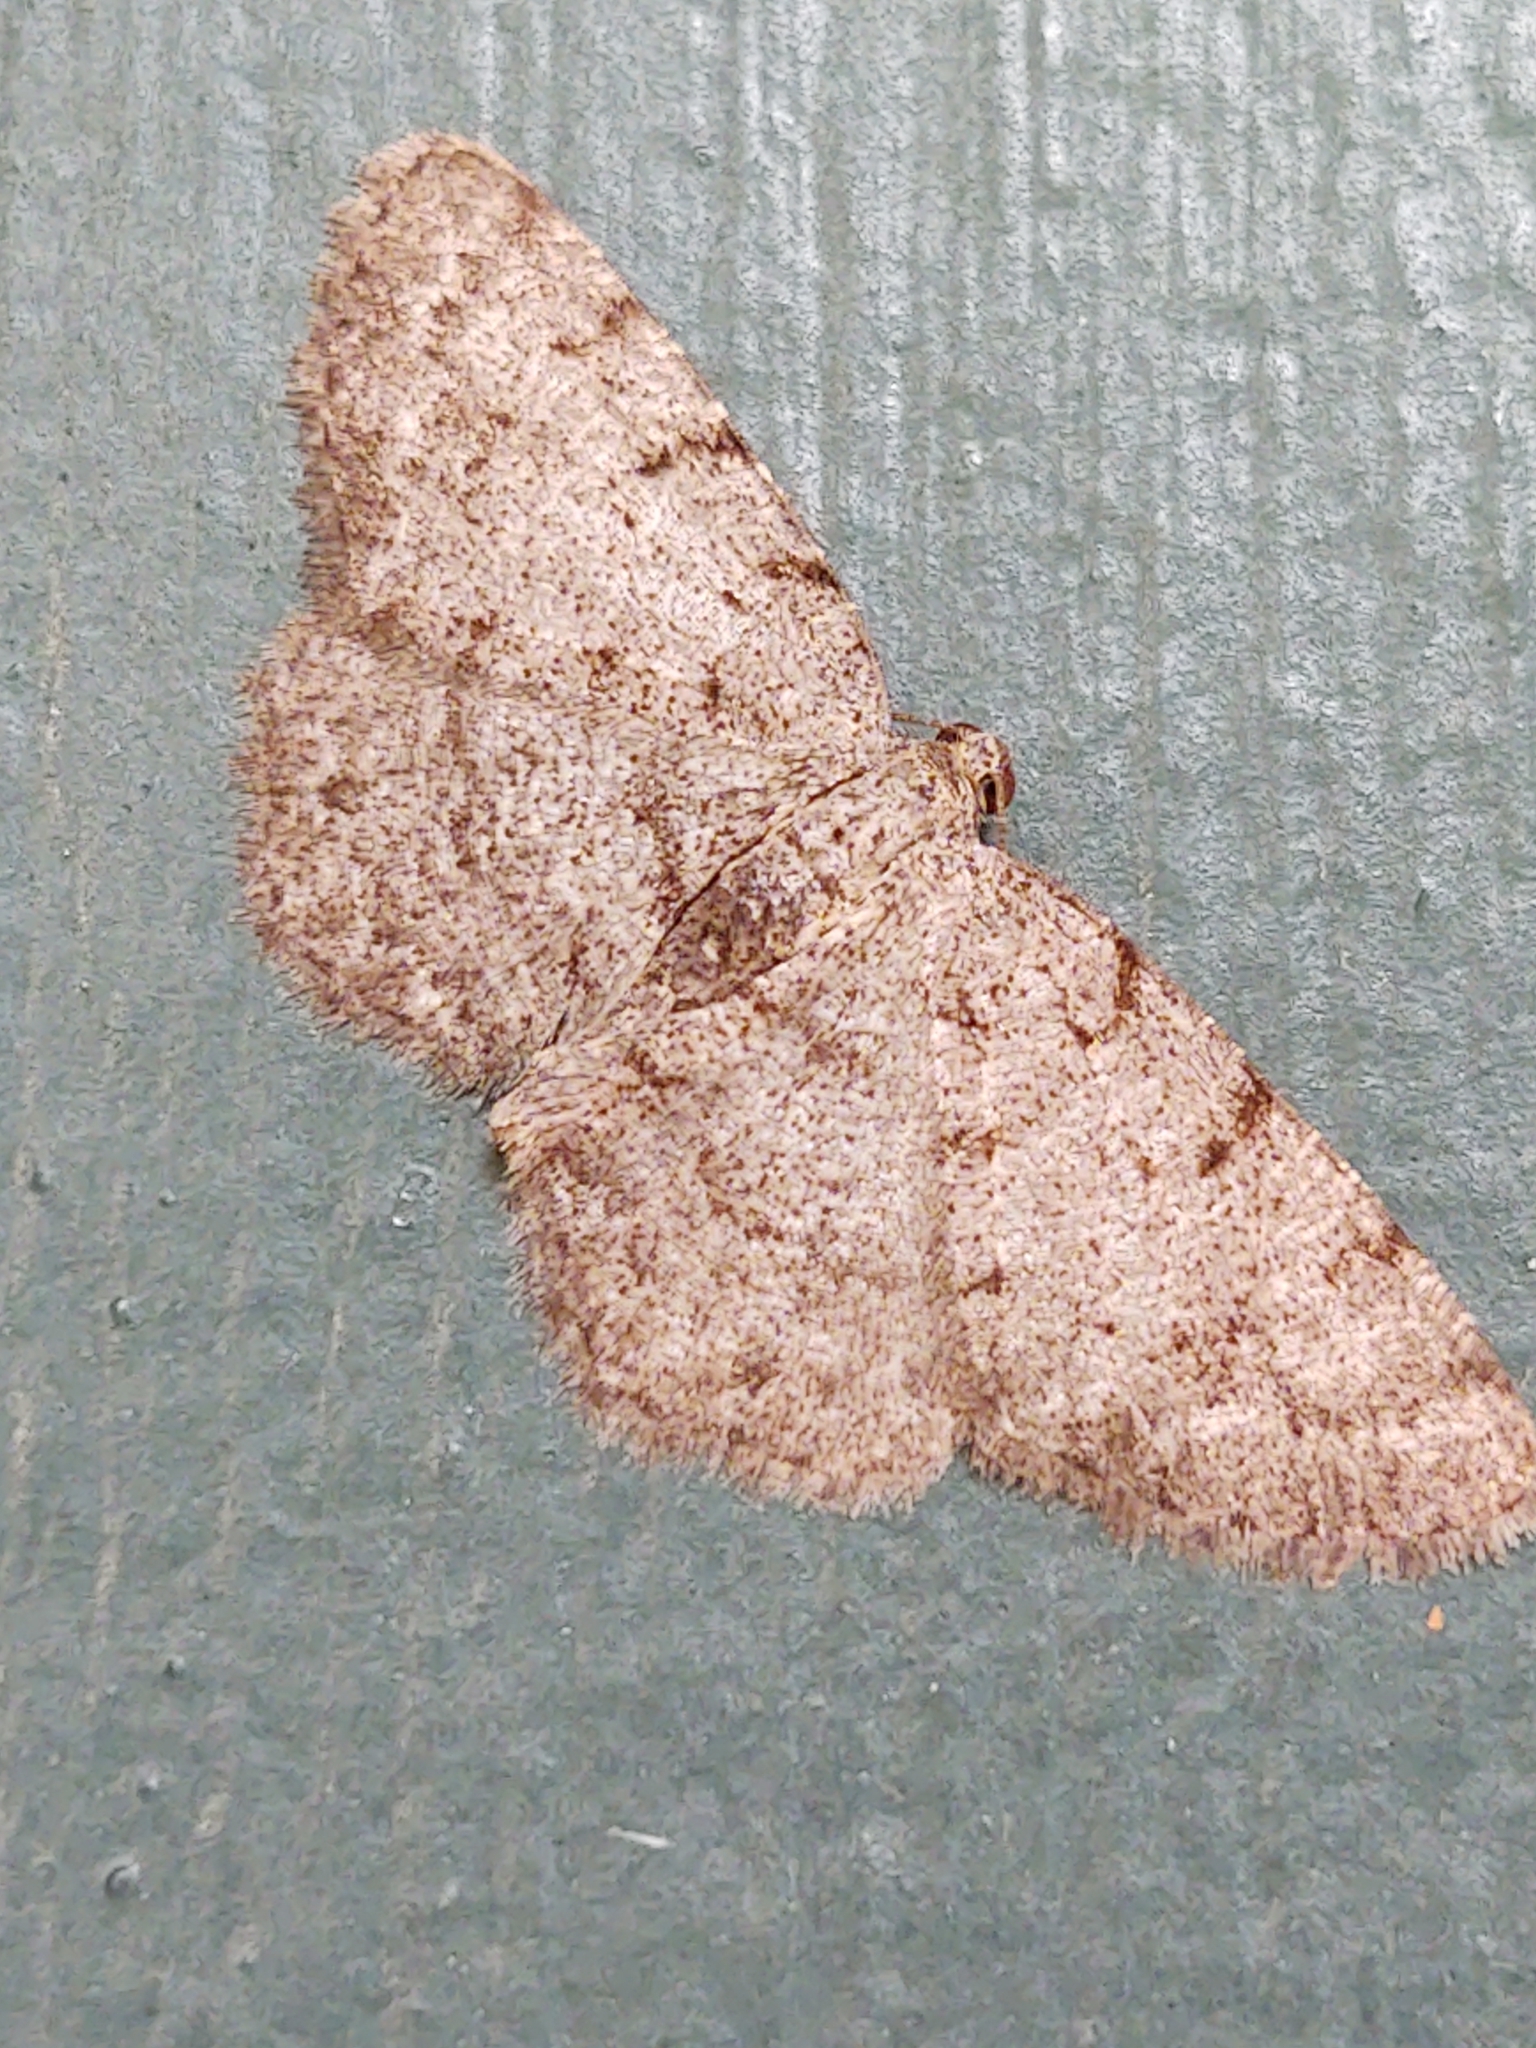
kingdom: Animalia
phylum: Arthropoda
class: Insecta
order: Lepidoptera
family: Geometridae
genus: Aethalura
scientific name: Aethalura intertexta
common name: Four-barred gray
